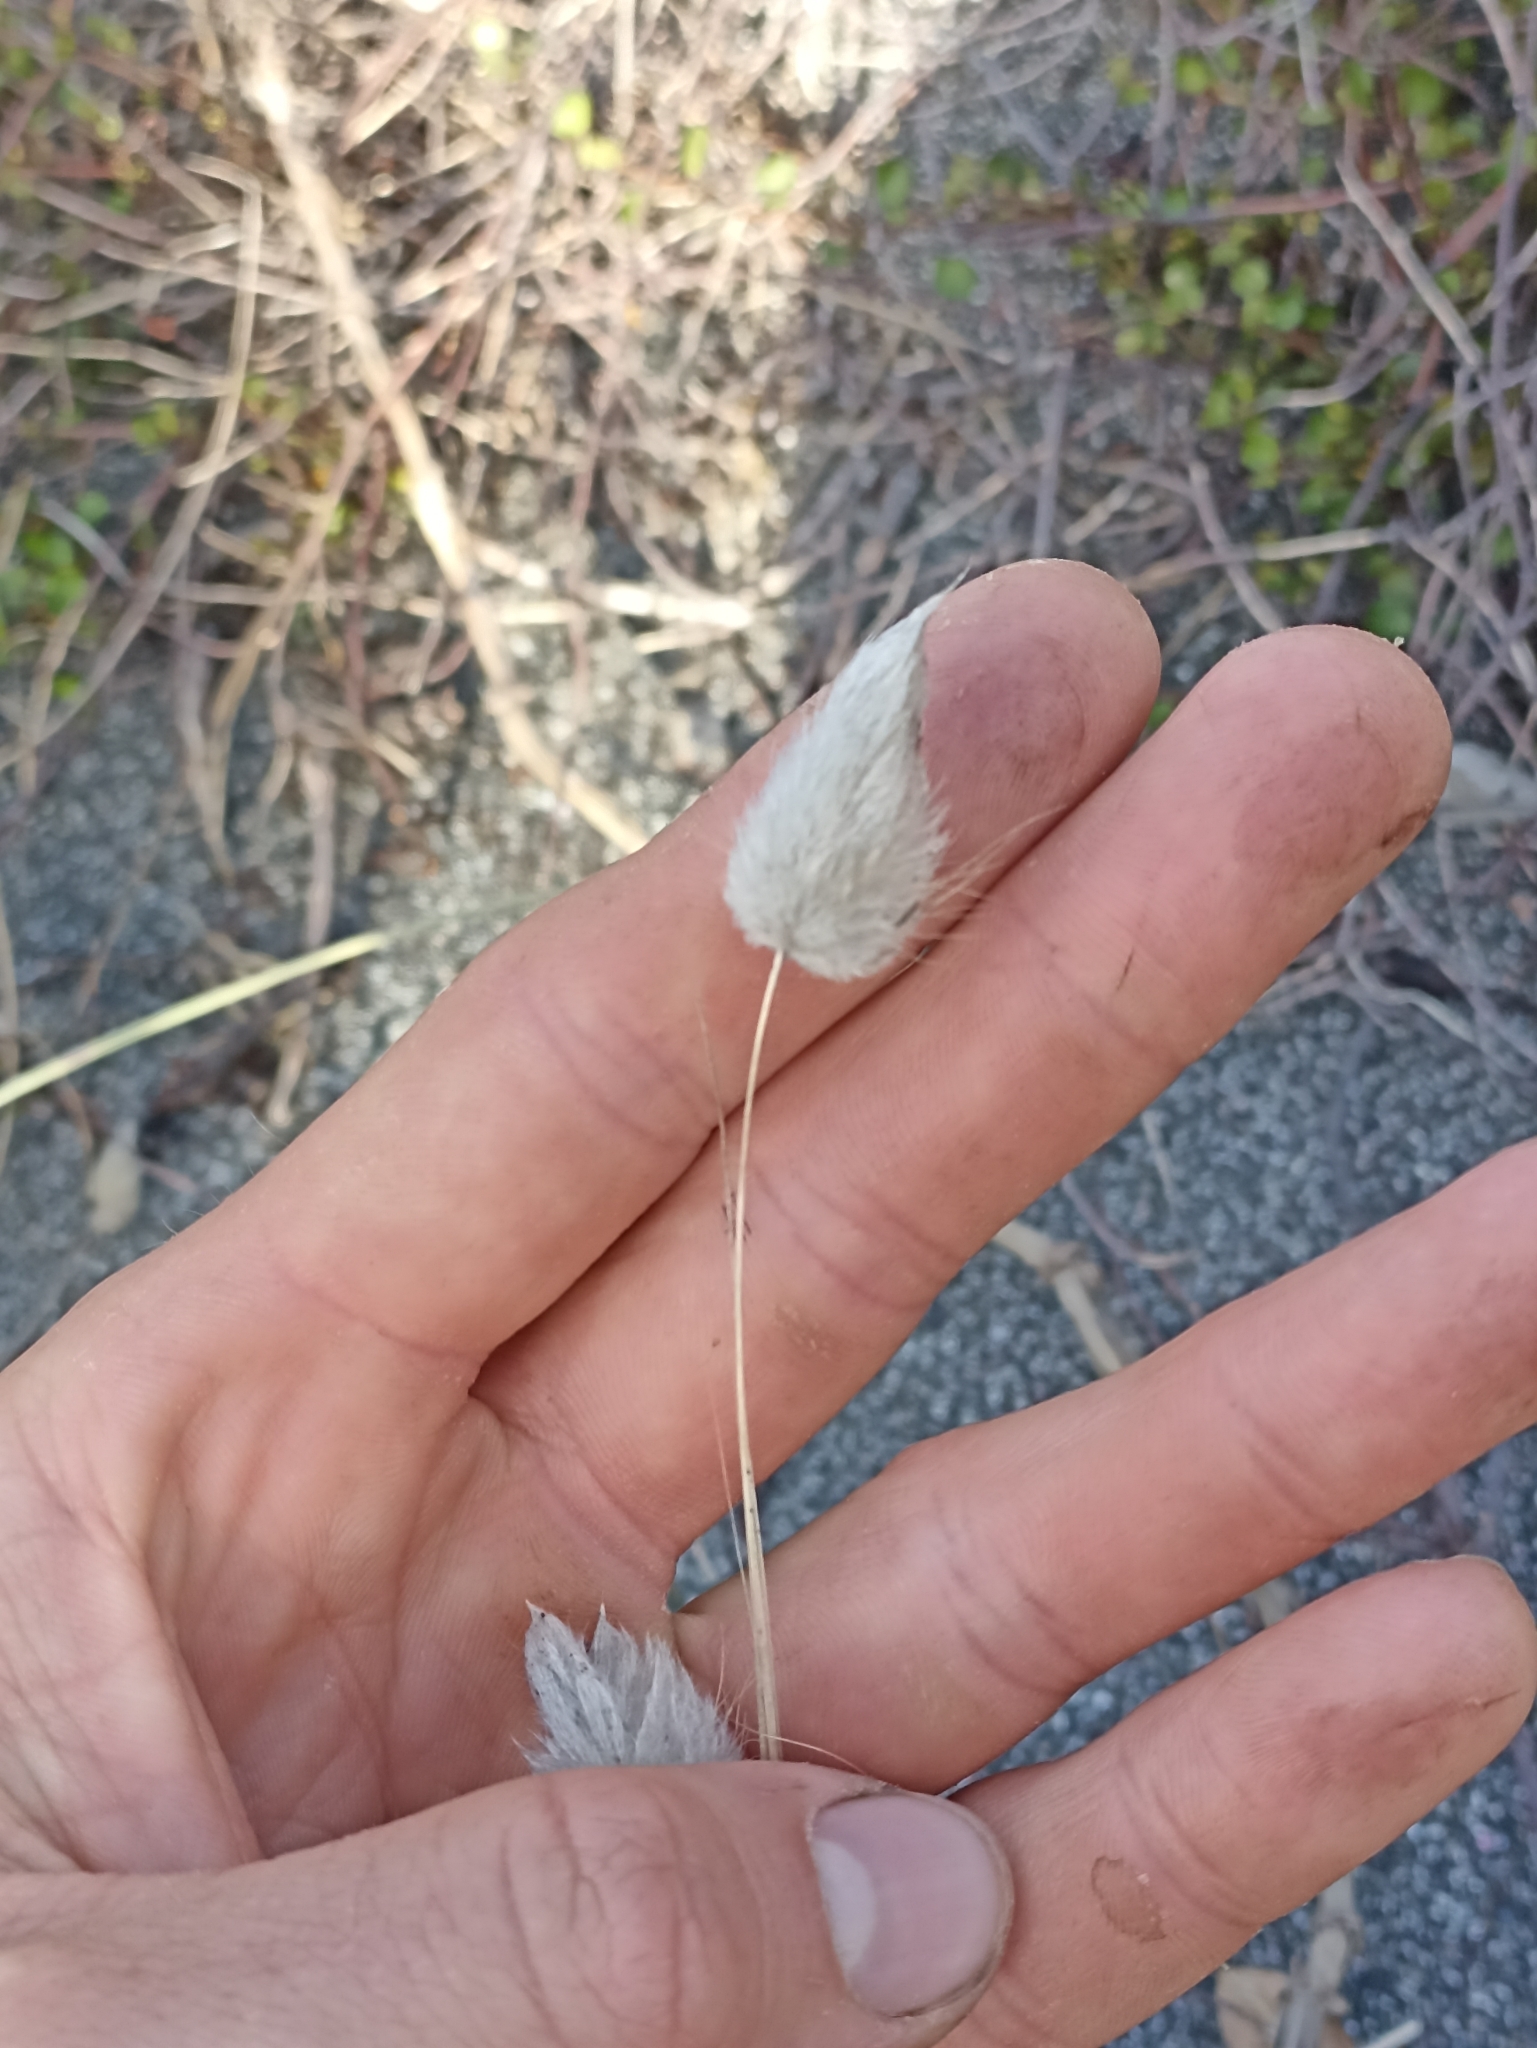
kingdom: Plantae
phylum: Tracheophyta
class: Liliopsida
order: Poales
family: Poaceae
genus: Lagurus
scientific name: Lagurus ovatus
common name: Hare's-tail
